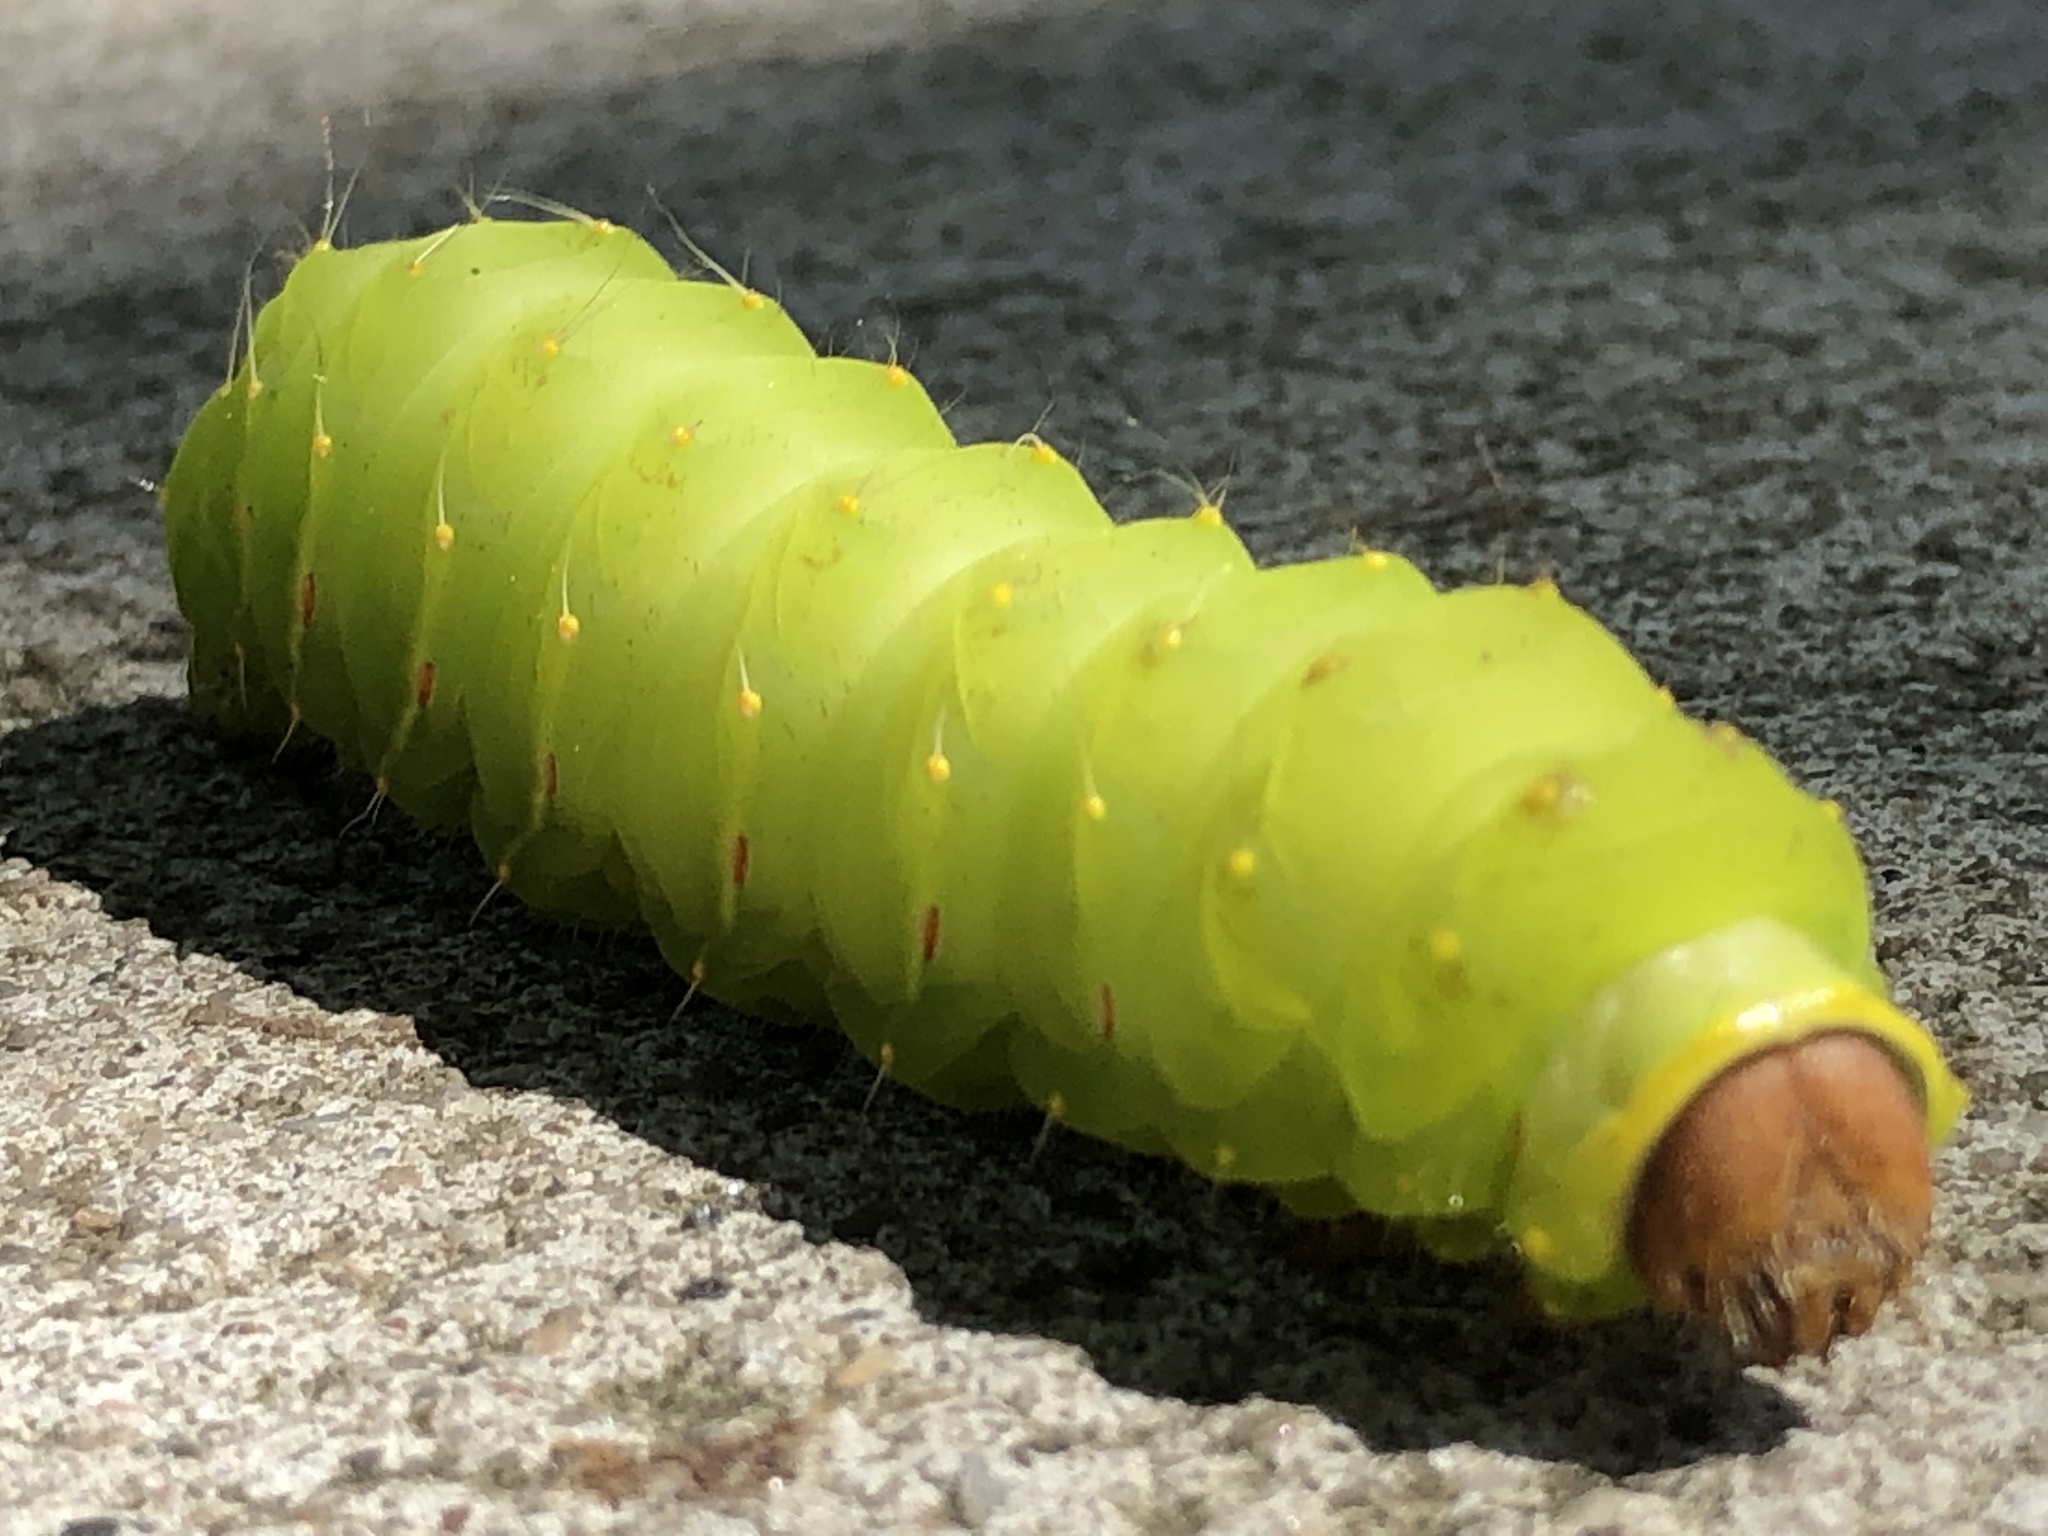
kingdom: Animalia
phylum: Arthropoda
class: Insecta
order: Lepidoptera
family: Saturniidae
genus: Antheraea
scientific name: Antheraea polyphemus
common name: Polyphemus moth
